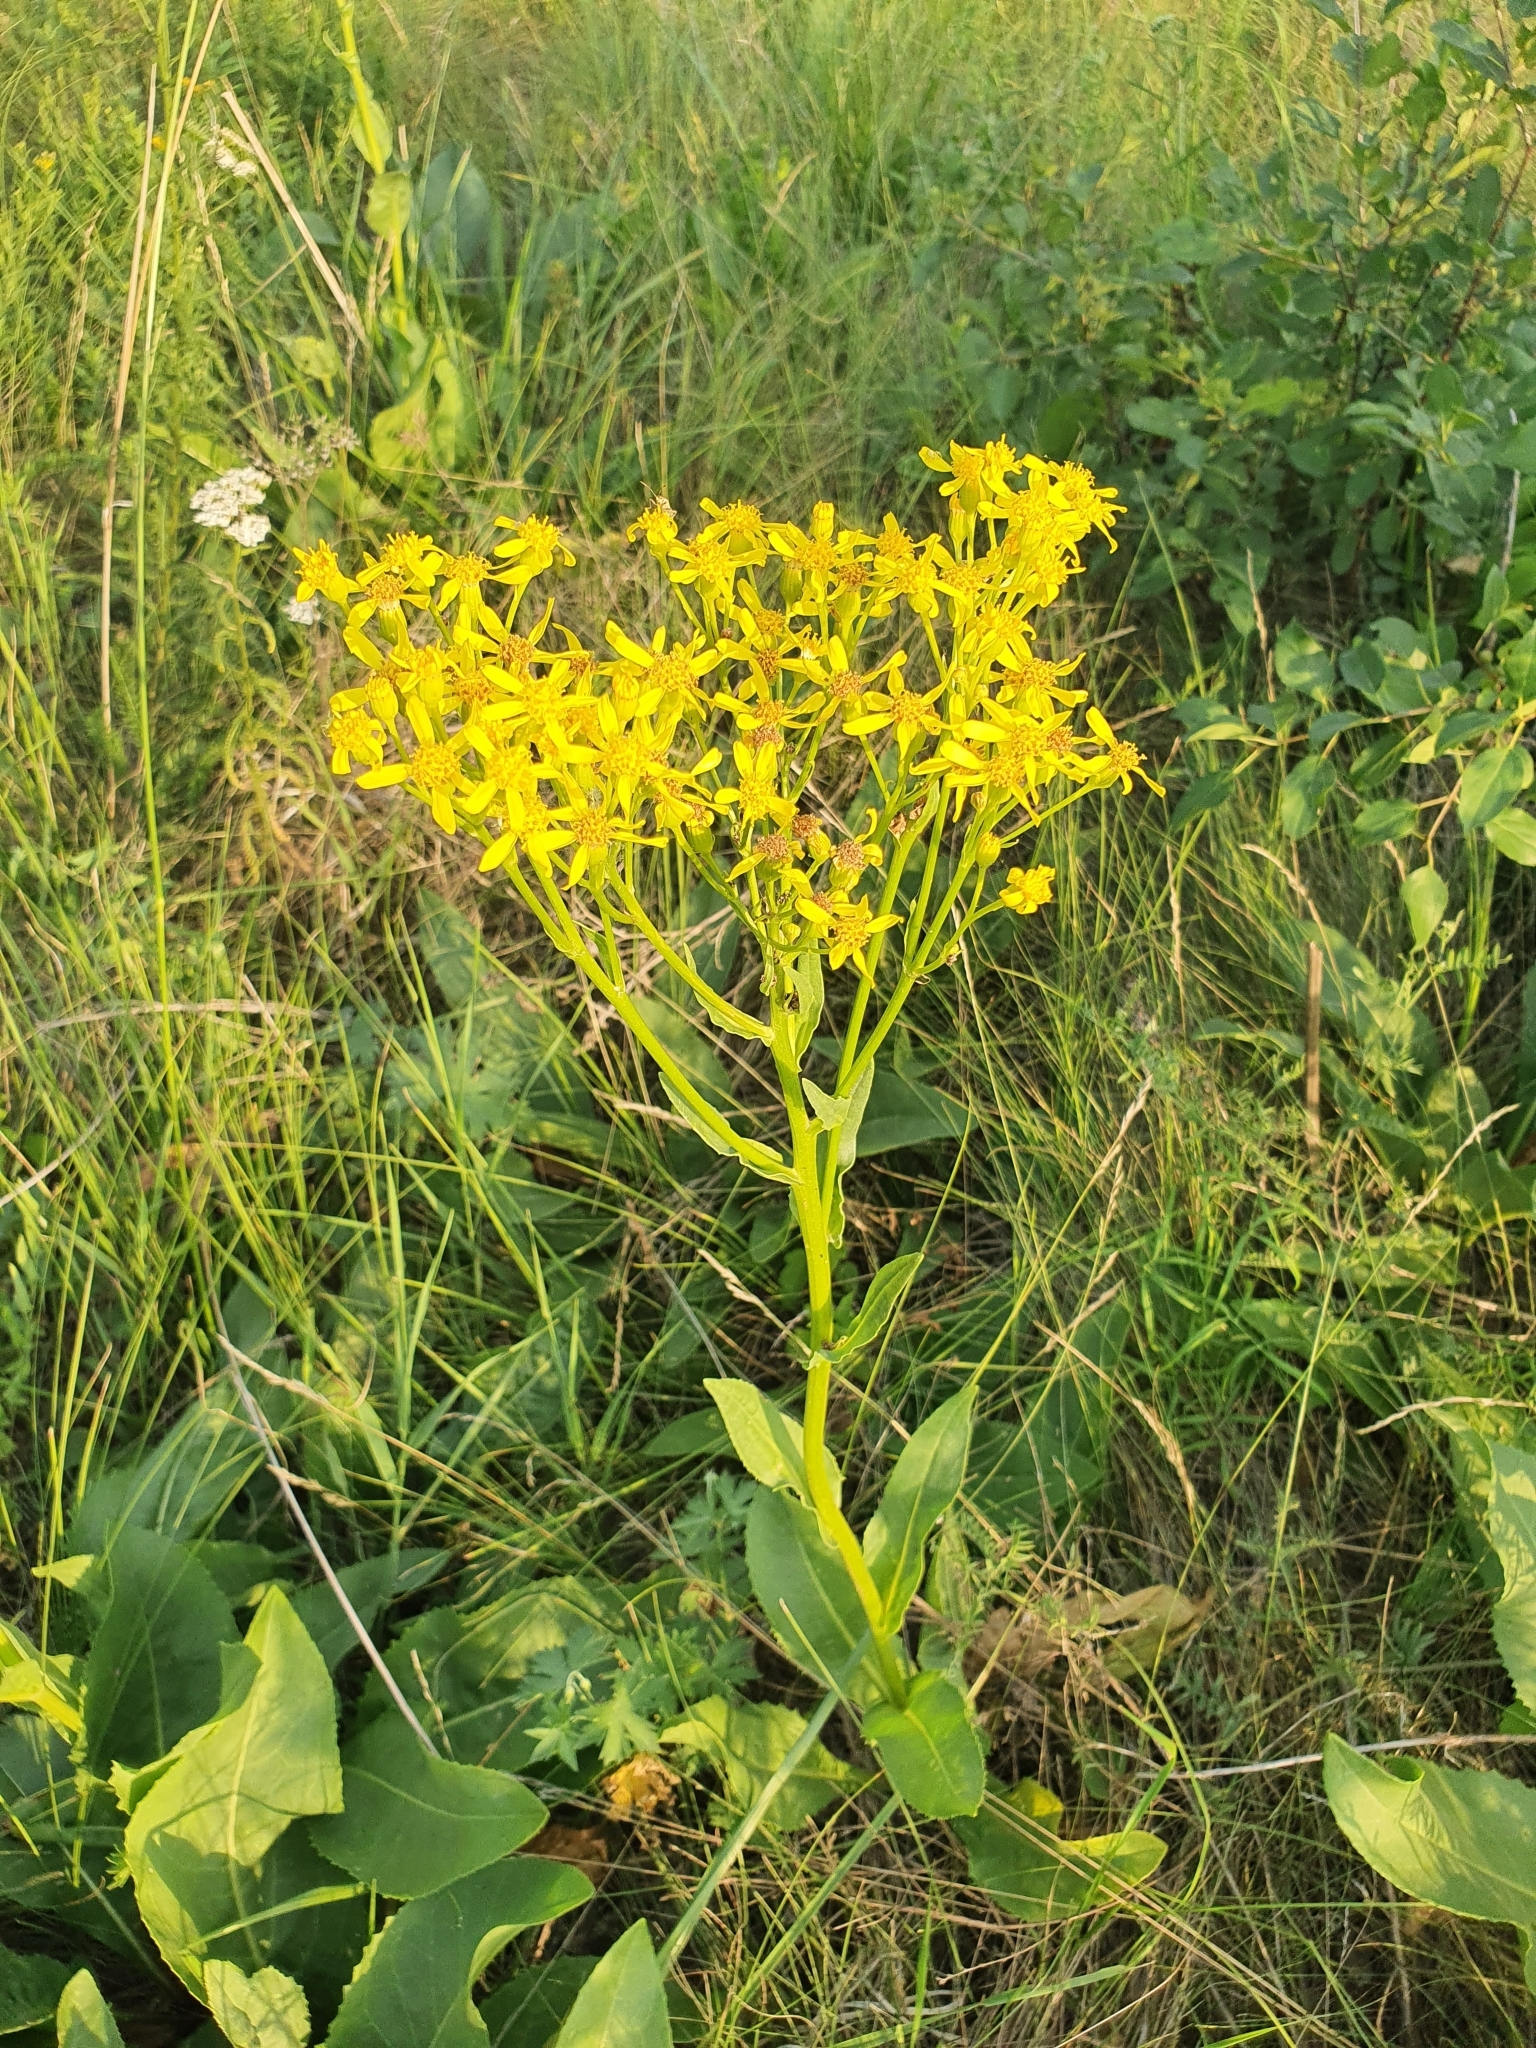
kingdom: Plantae
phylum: Tracheophyta
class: Magnoliopsida
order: Asterales
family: Asteraceae
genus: Senecio
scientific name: Senecio doria
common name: Golden ragwort
